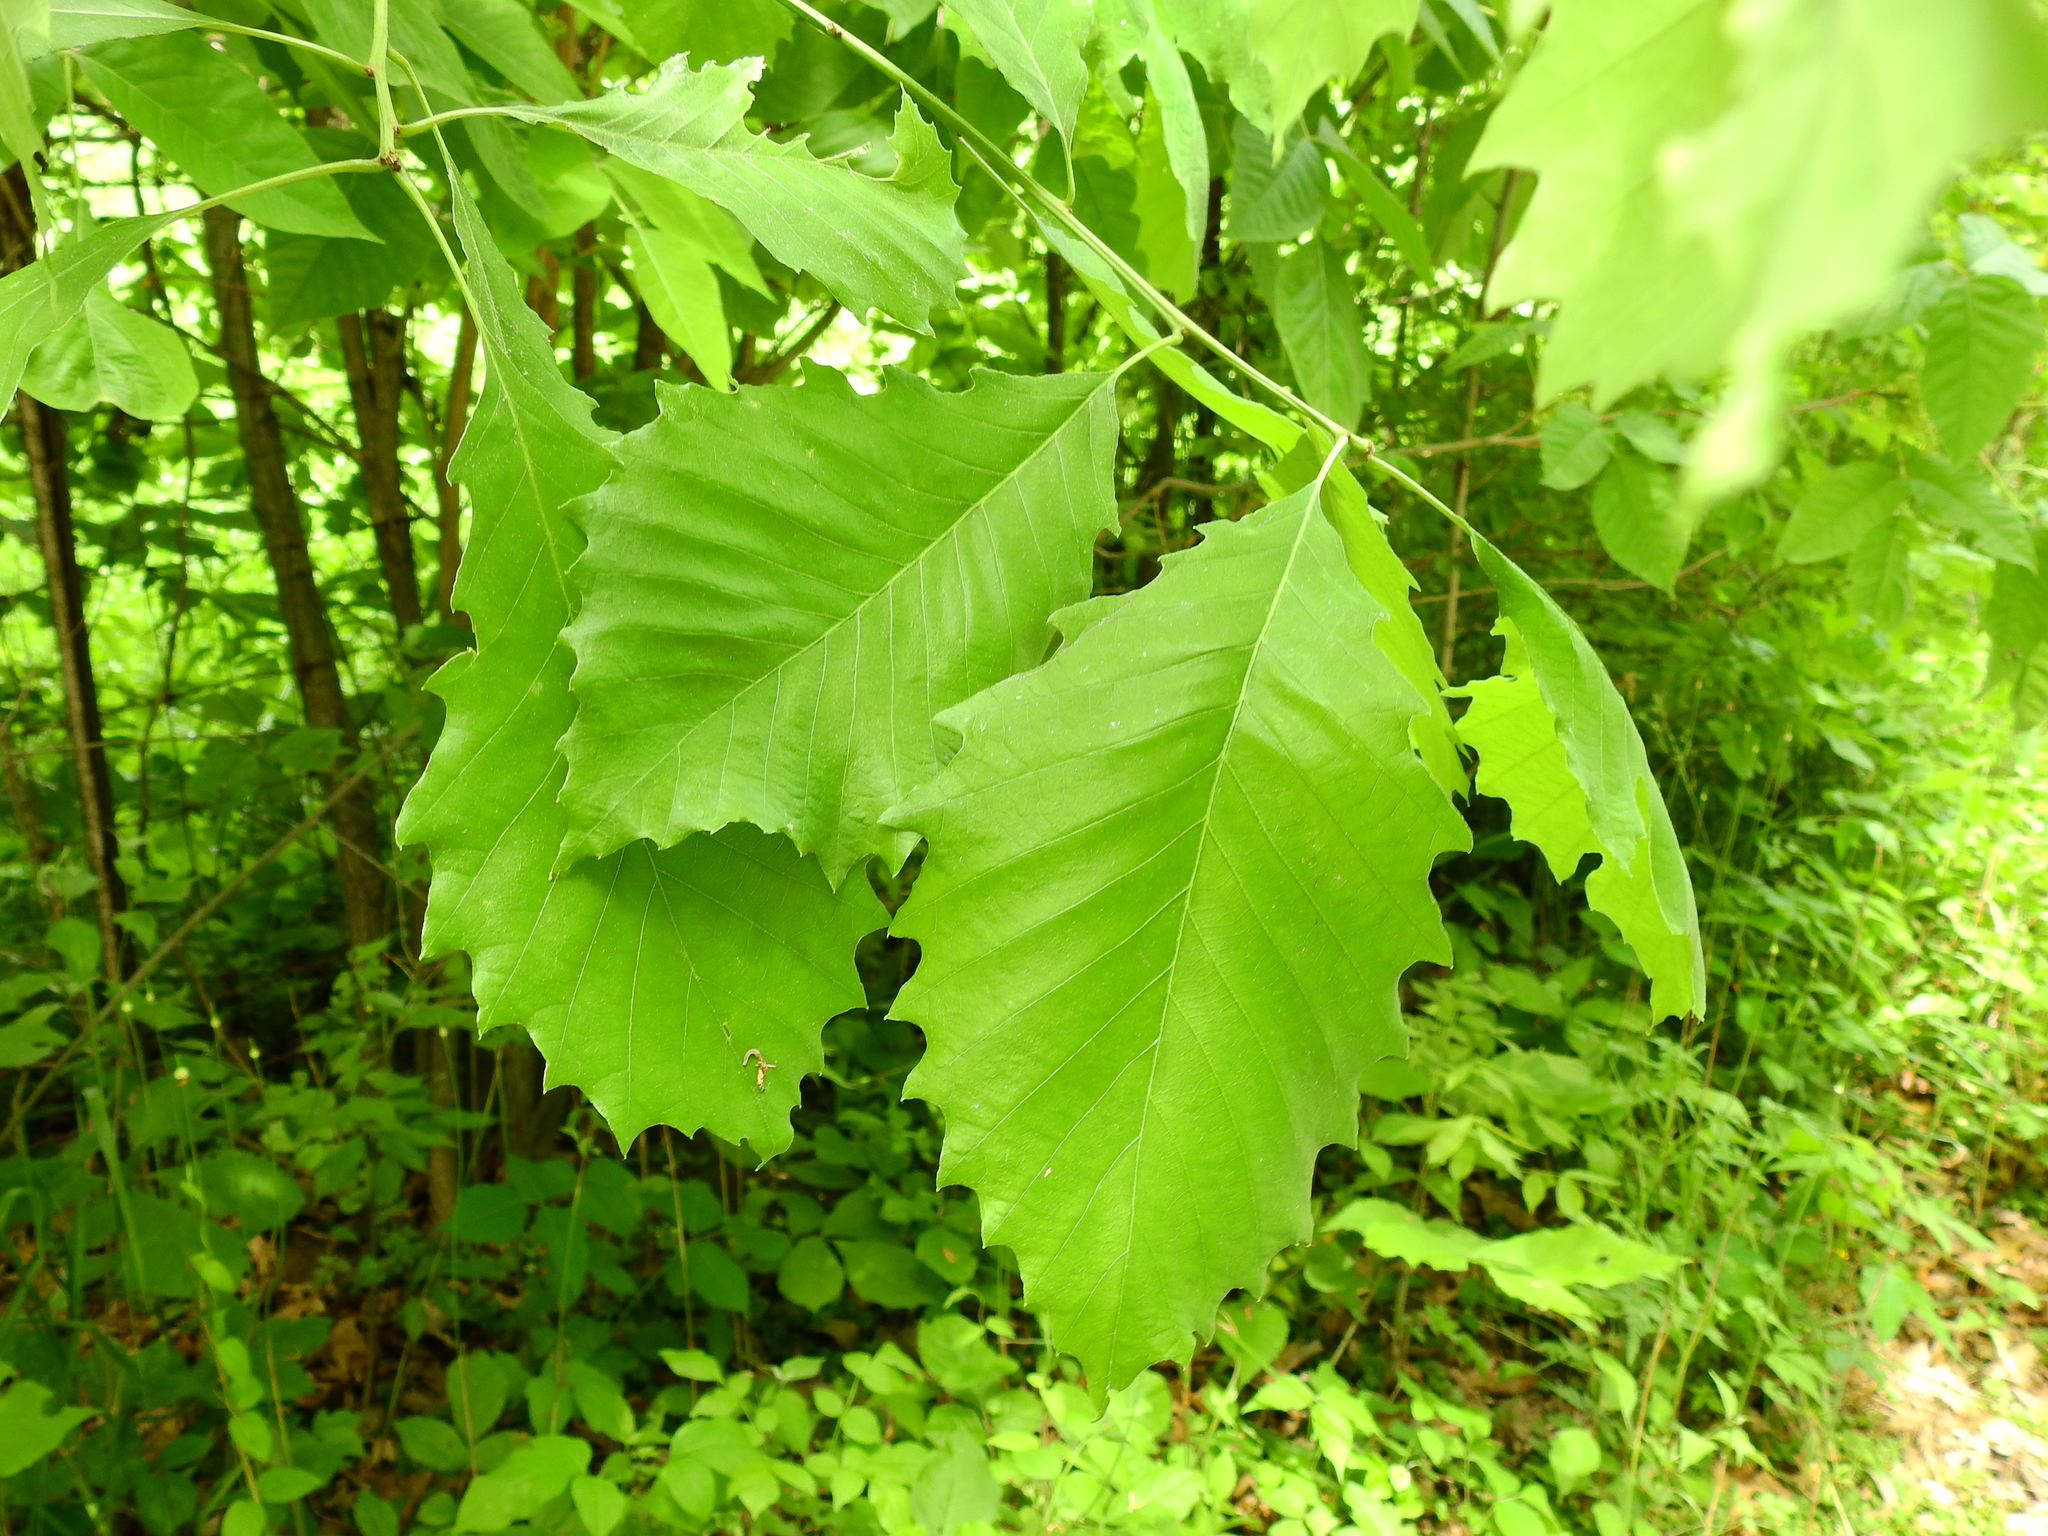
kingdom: Plantae
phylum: Tracheophyta
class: Magnoliopsida
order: Fagales
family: Fagaceae
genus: Quercus
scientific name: Quercus muehlenbergii
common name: Chinkapin oak
